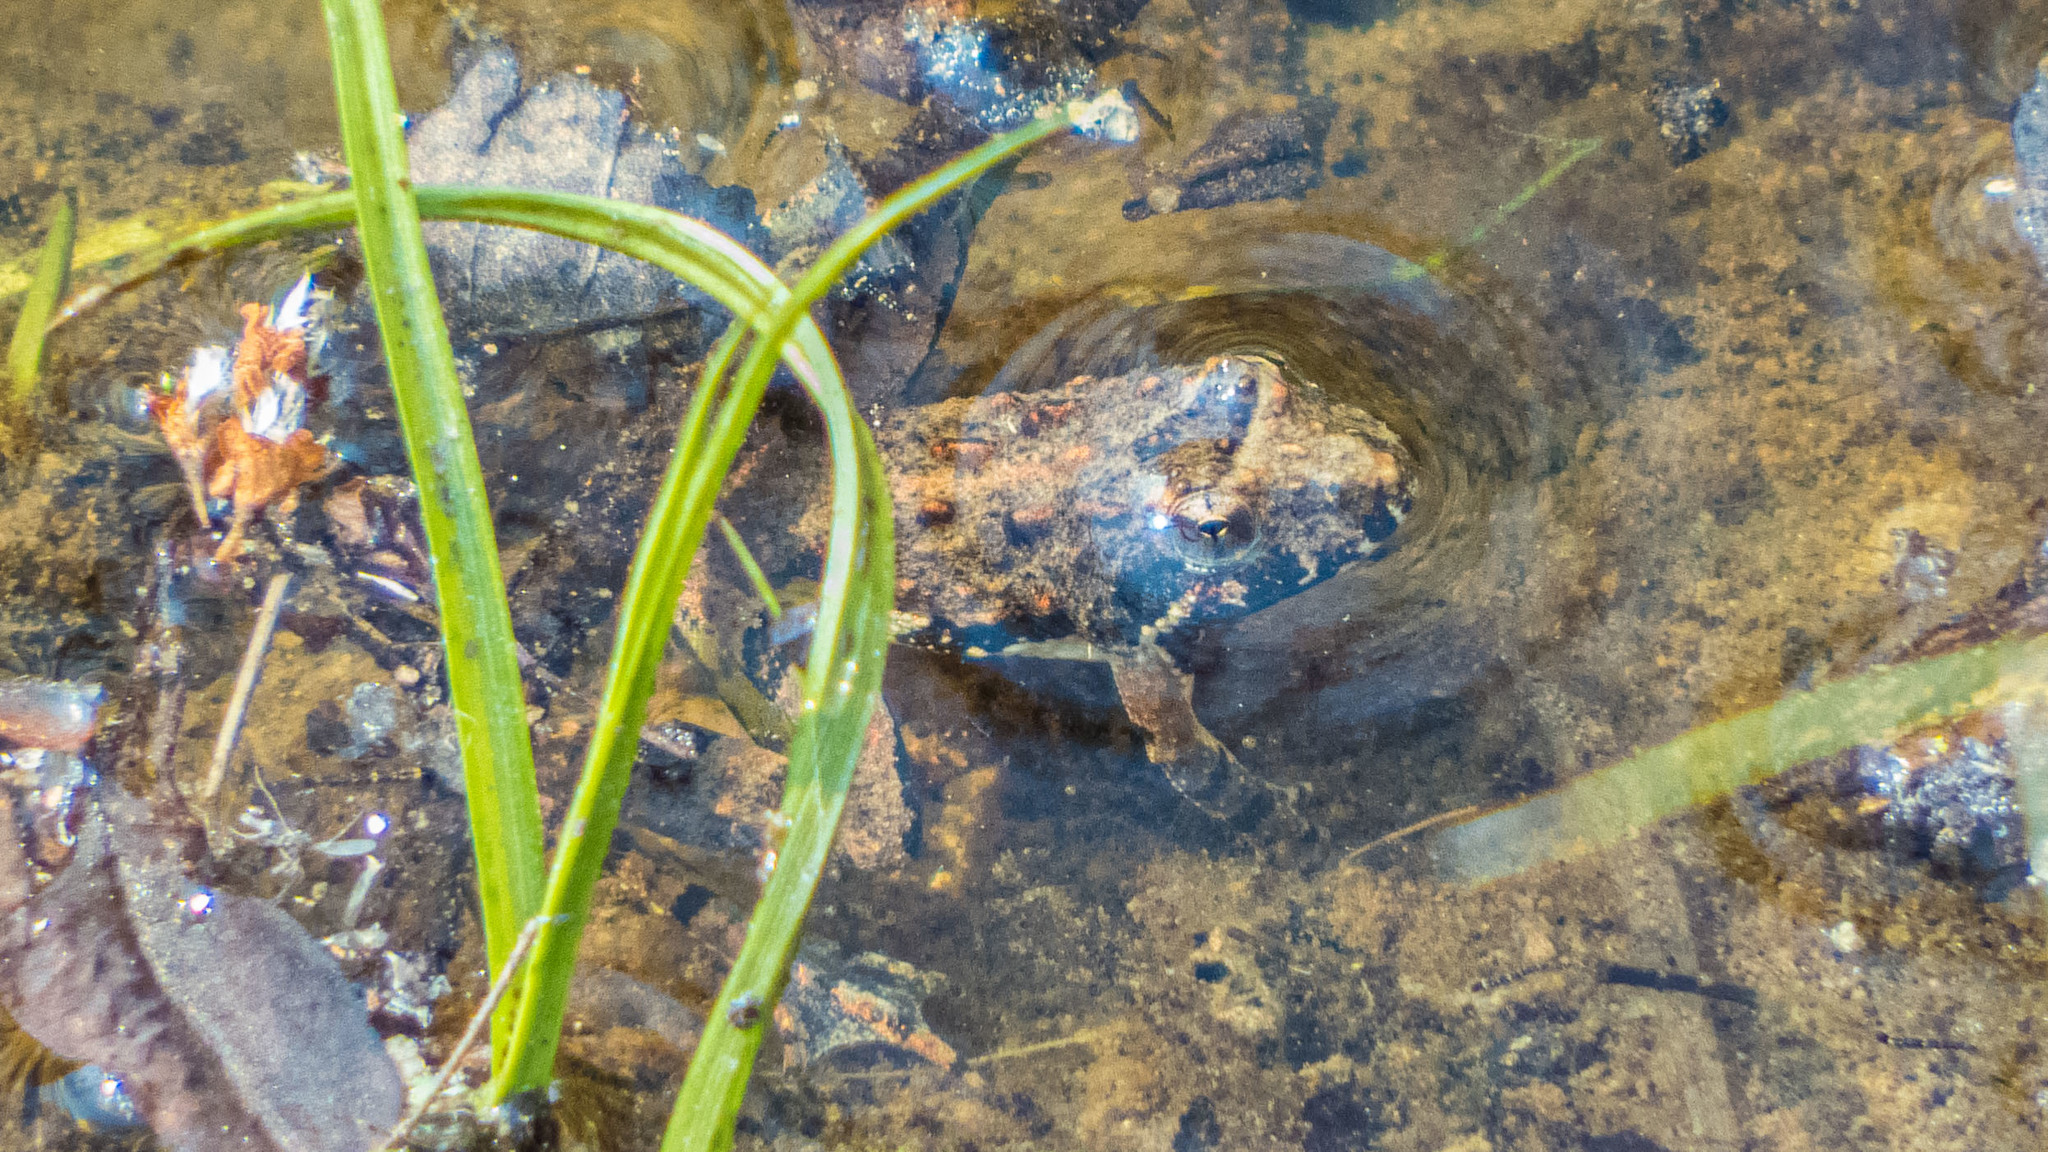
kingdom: Animalia
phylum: Chordata
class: Amphibia
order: Anura
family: Hylidae
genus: Acris
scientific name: Acris crepitans
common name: Northern cricket frog
